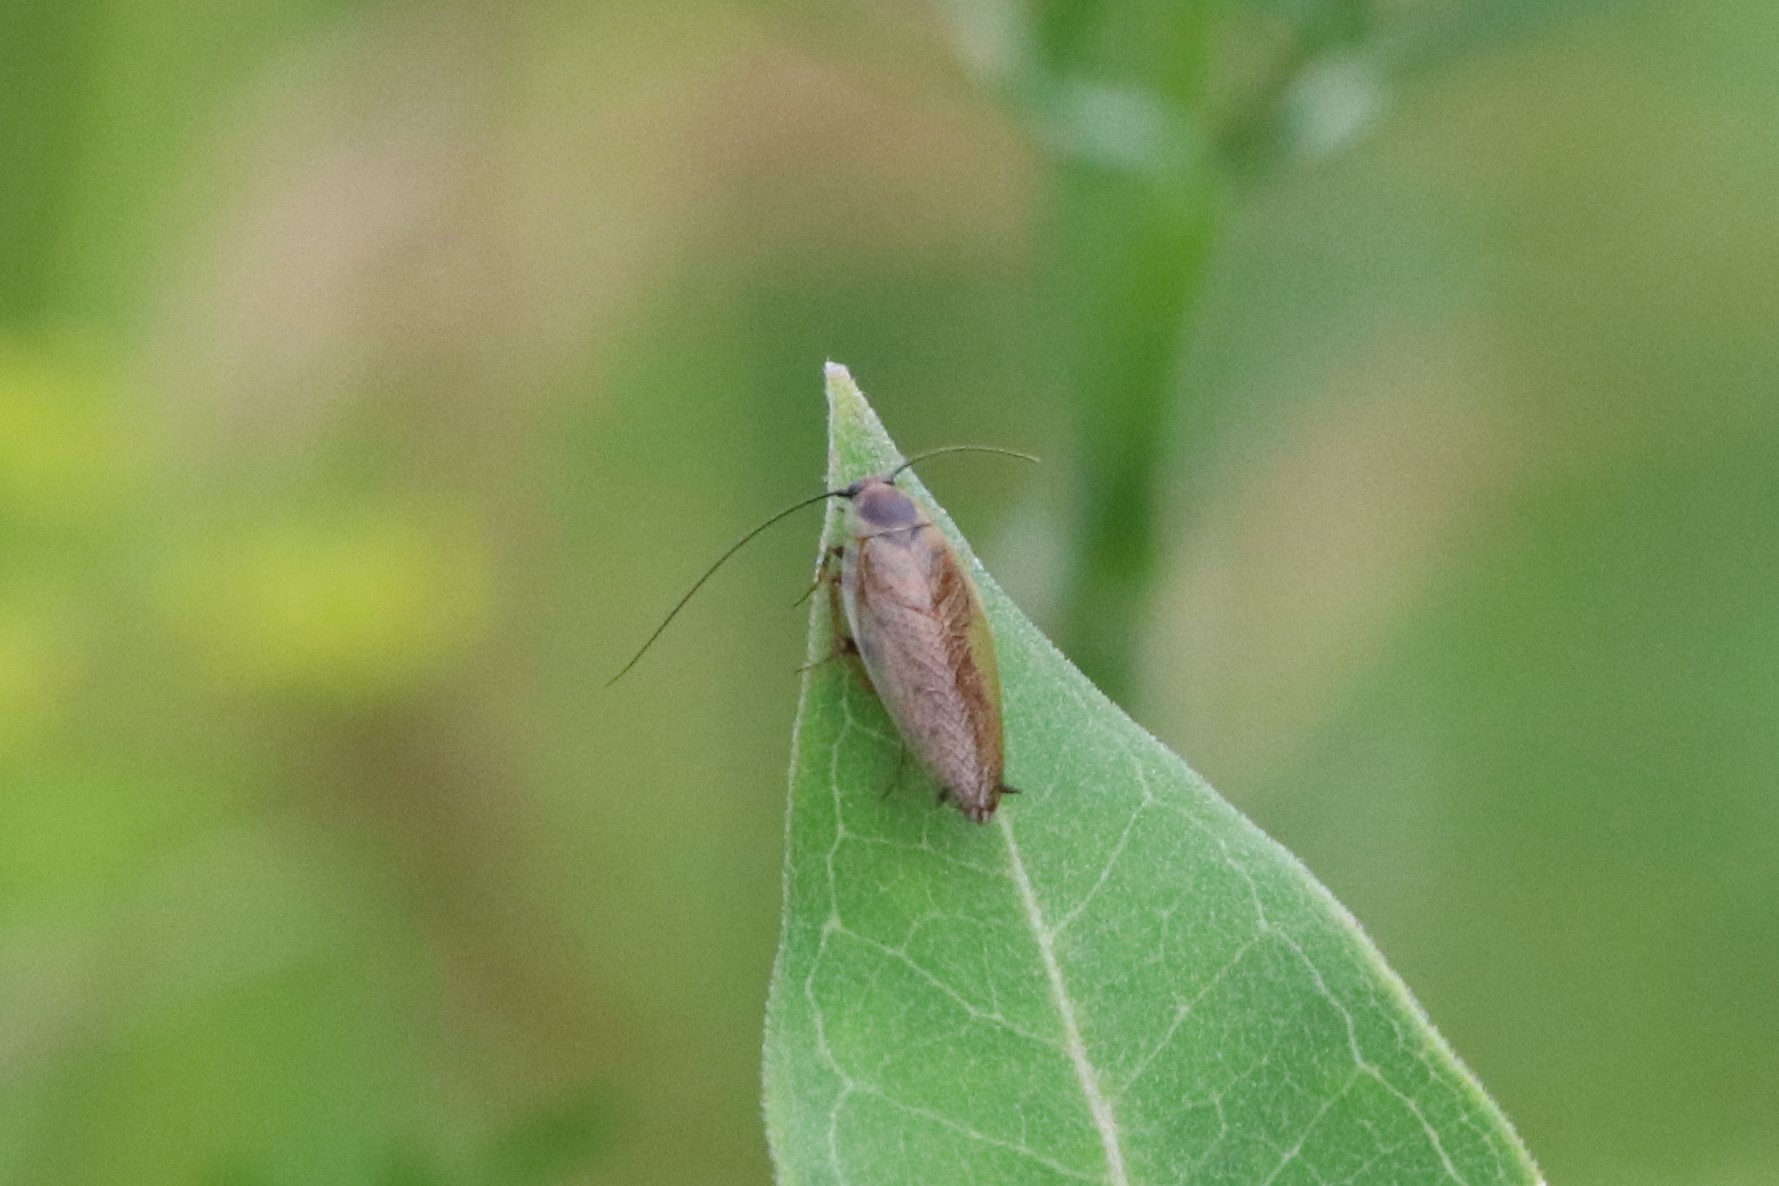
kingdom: Animalia
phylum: Arthropoda
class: Insecta
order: Blattodea
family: Ectobiidae
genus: Ectobius
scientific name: Ectobius lapponicus
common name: Dusky cockroach
